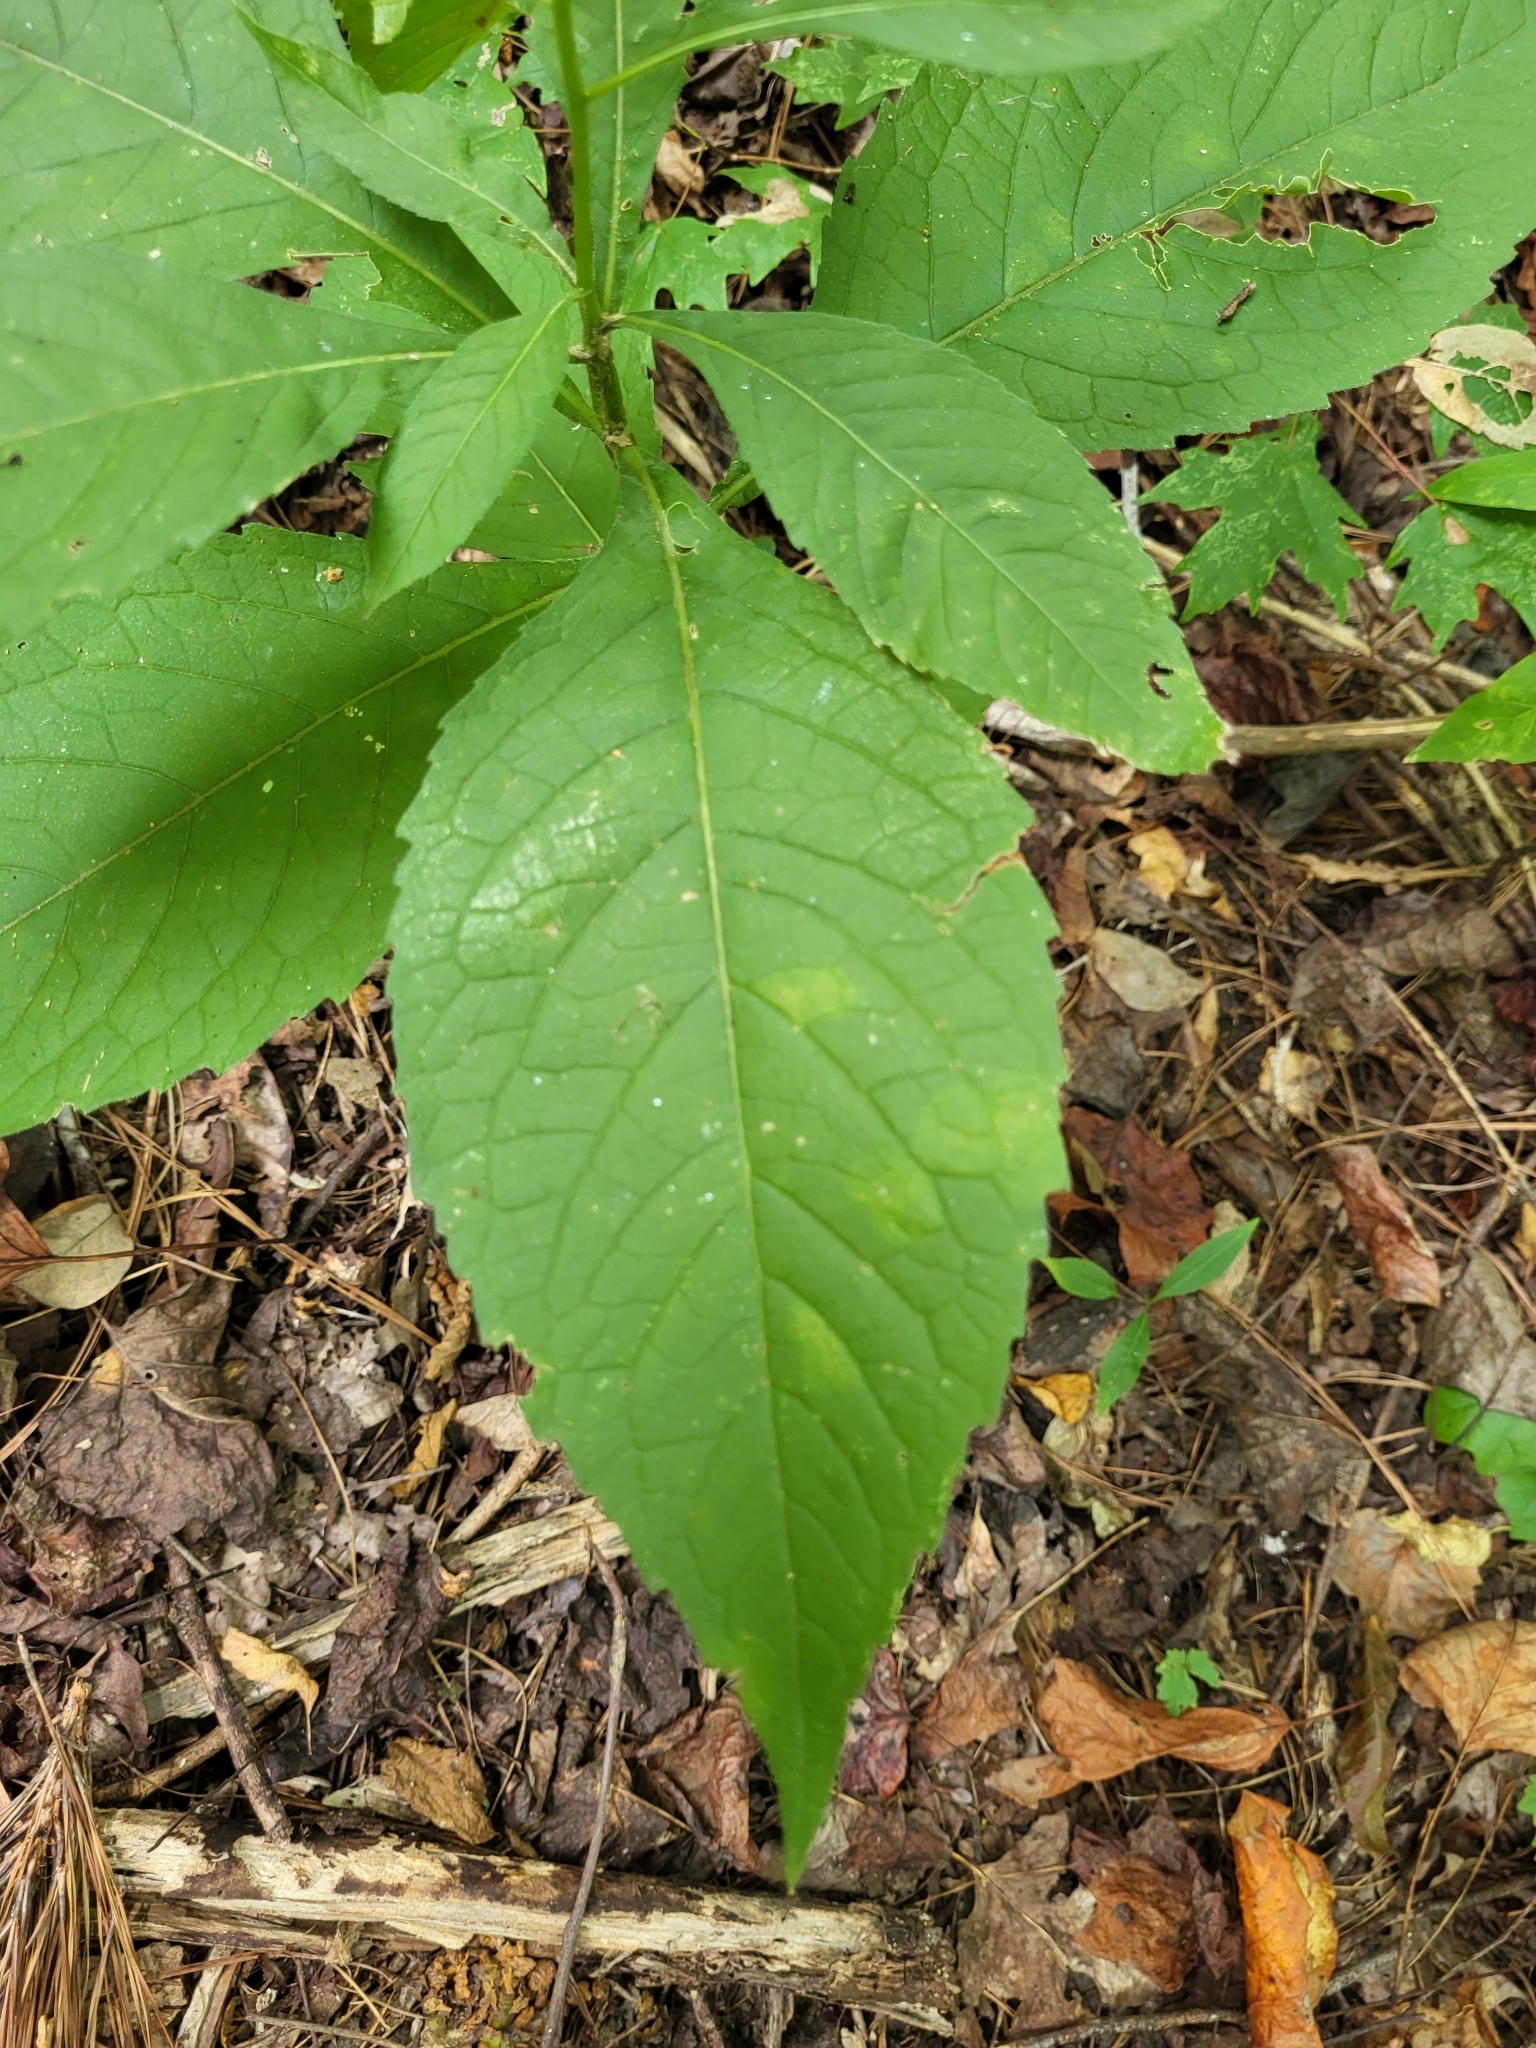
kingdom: Plantae
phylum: Tracheophyta
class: Magnoliopsida
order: Asterales
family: Asteraceae
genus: Verbesina
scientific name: Verbesina alternifolia
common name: Wingstem
